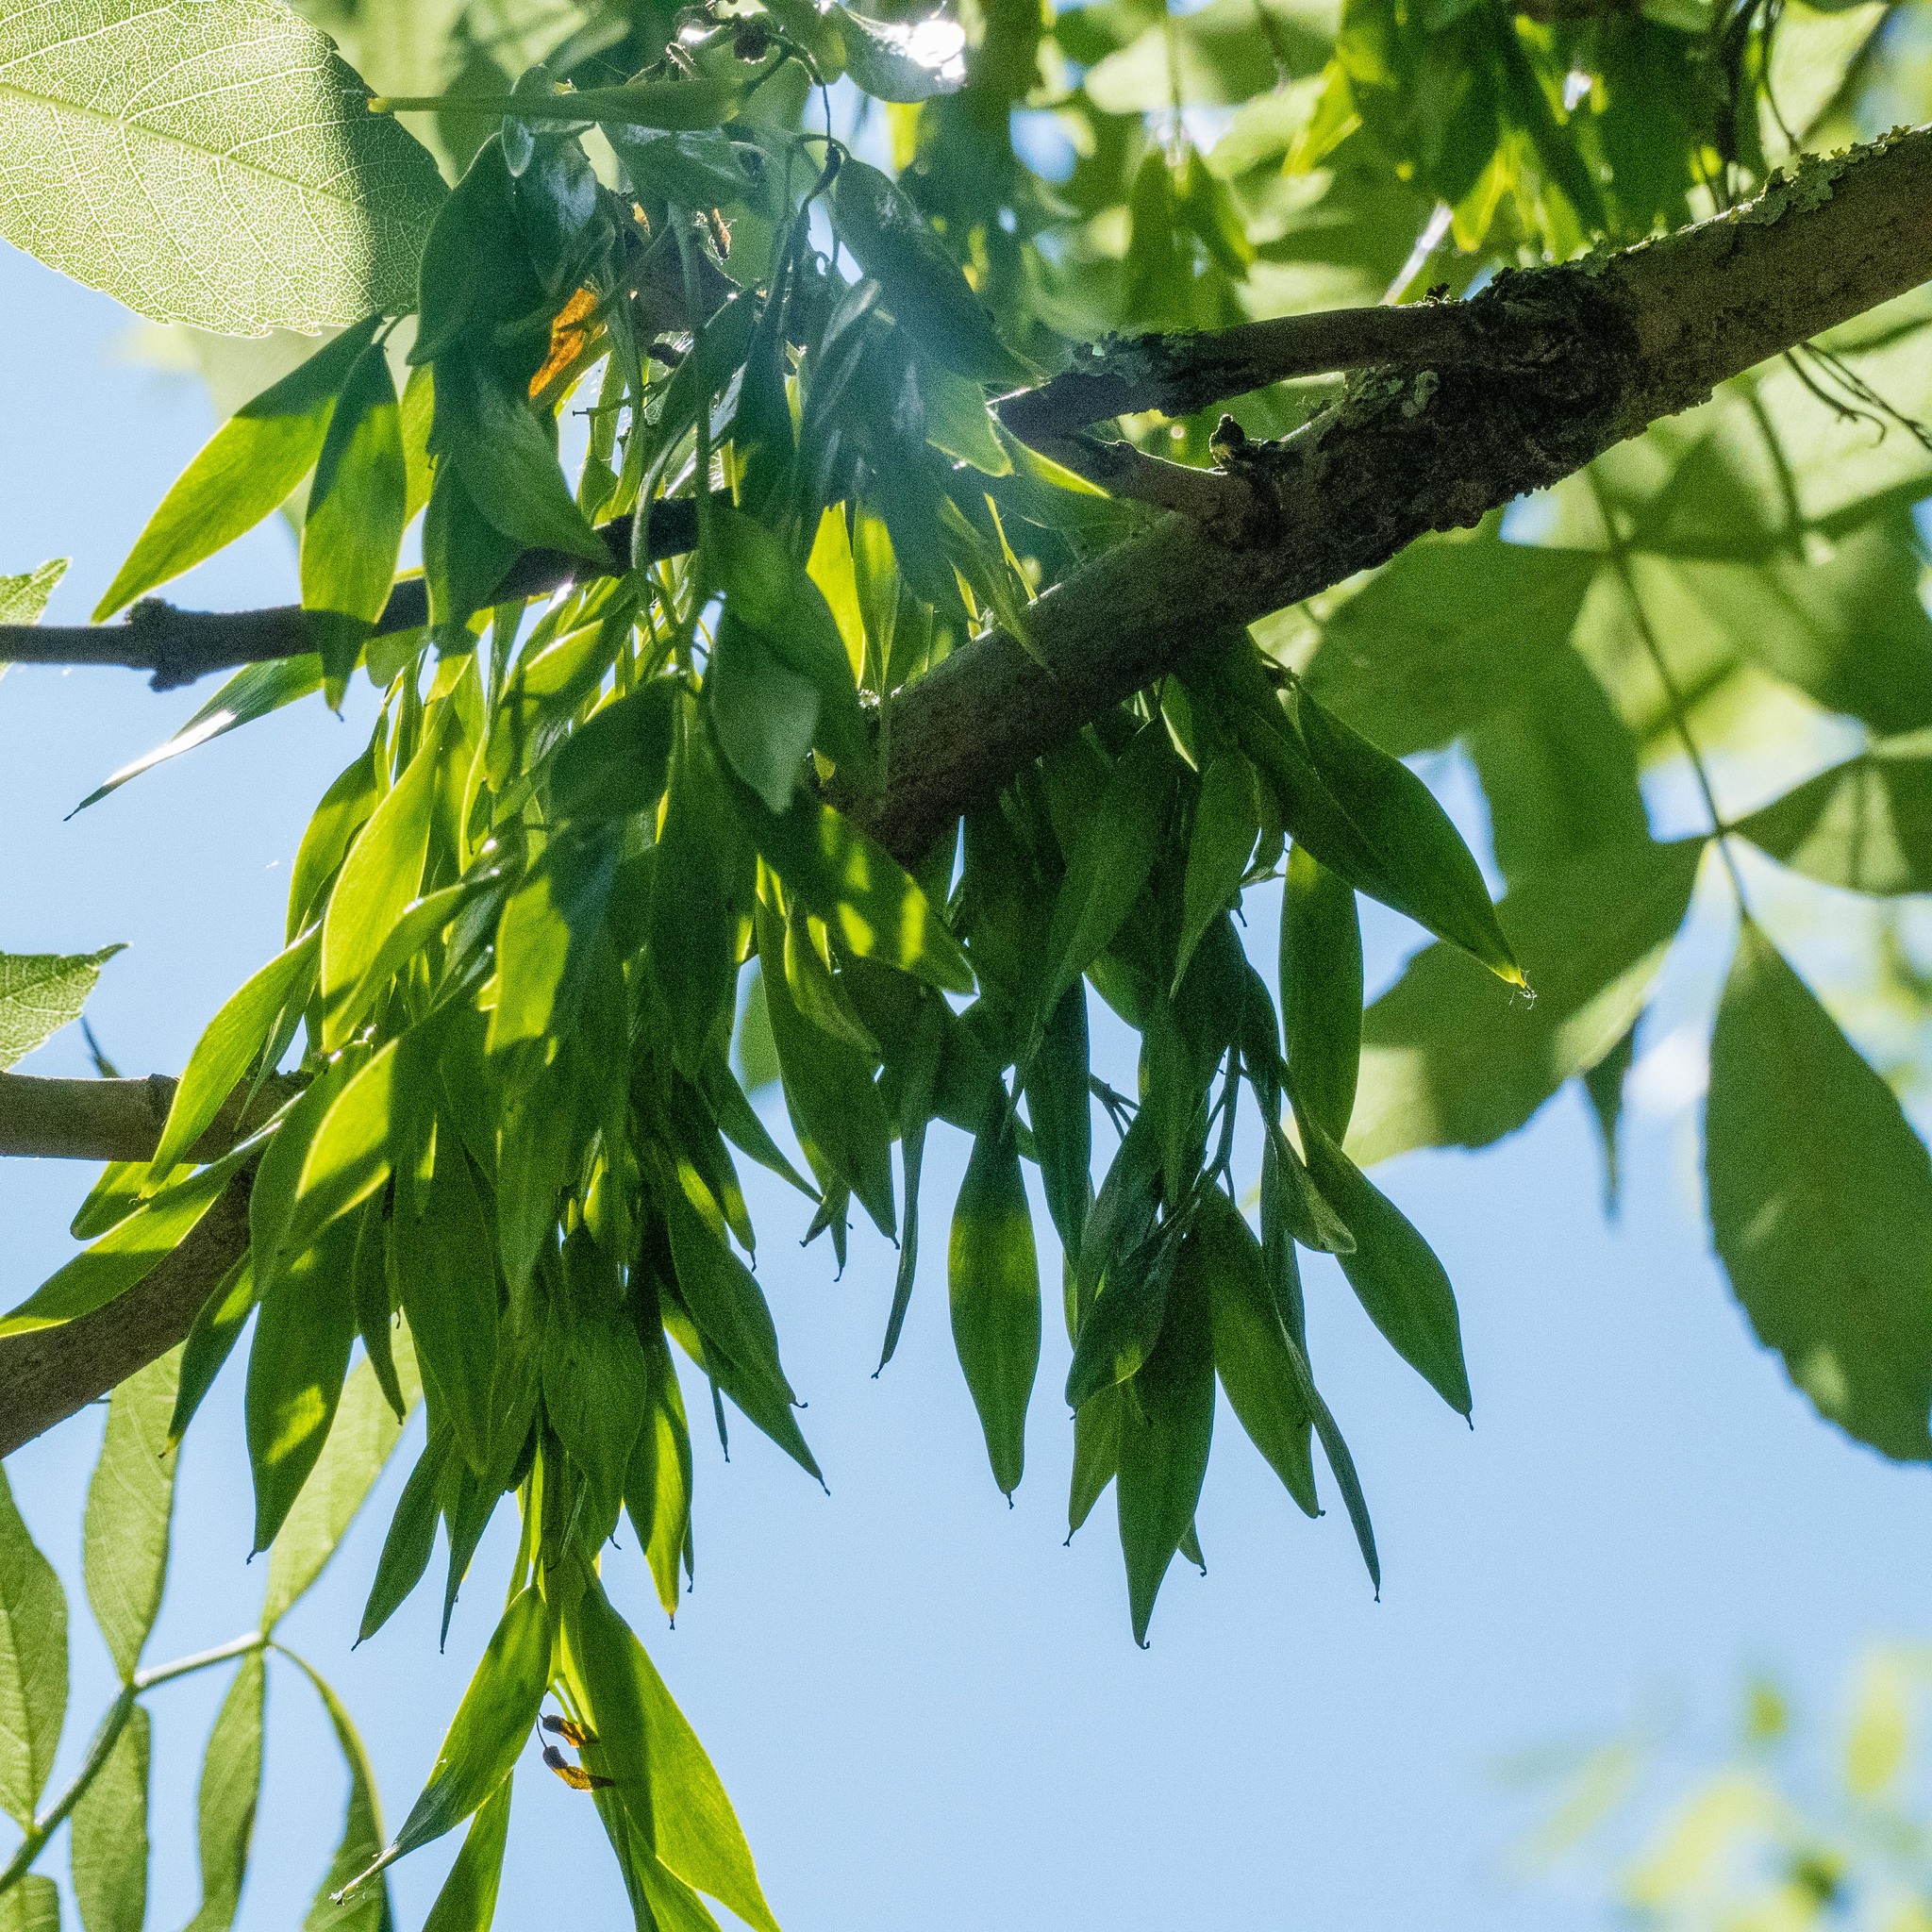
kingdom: Plantae
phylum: Tracheophyta
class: Magnoliopsida
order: Lamiales
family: Oleaceae
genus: Fraxinus
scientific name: Fraxinus excelsior
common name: European ash
